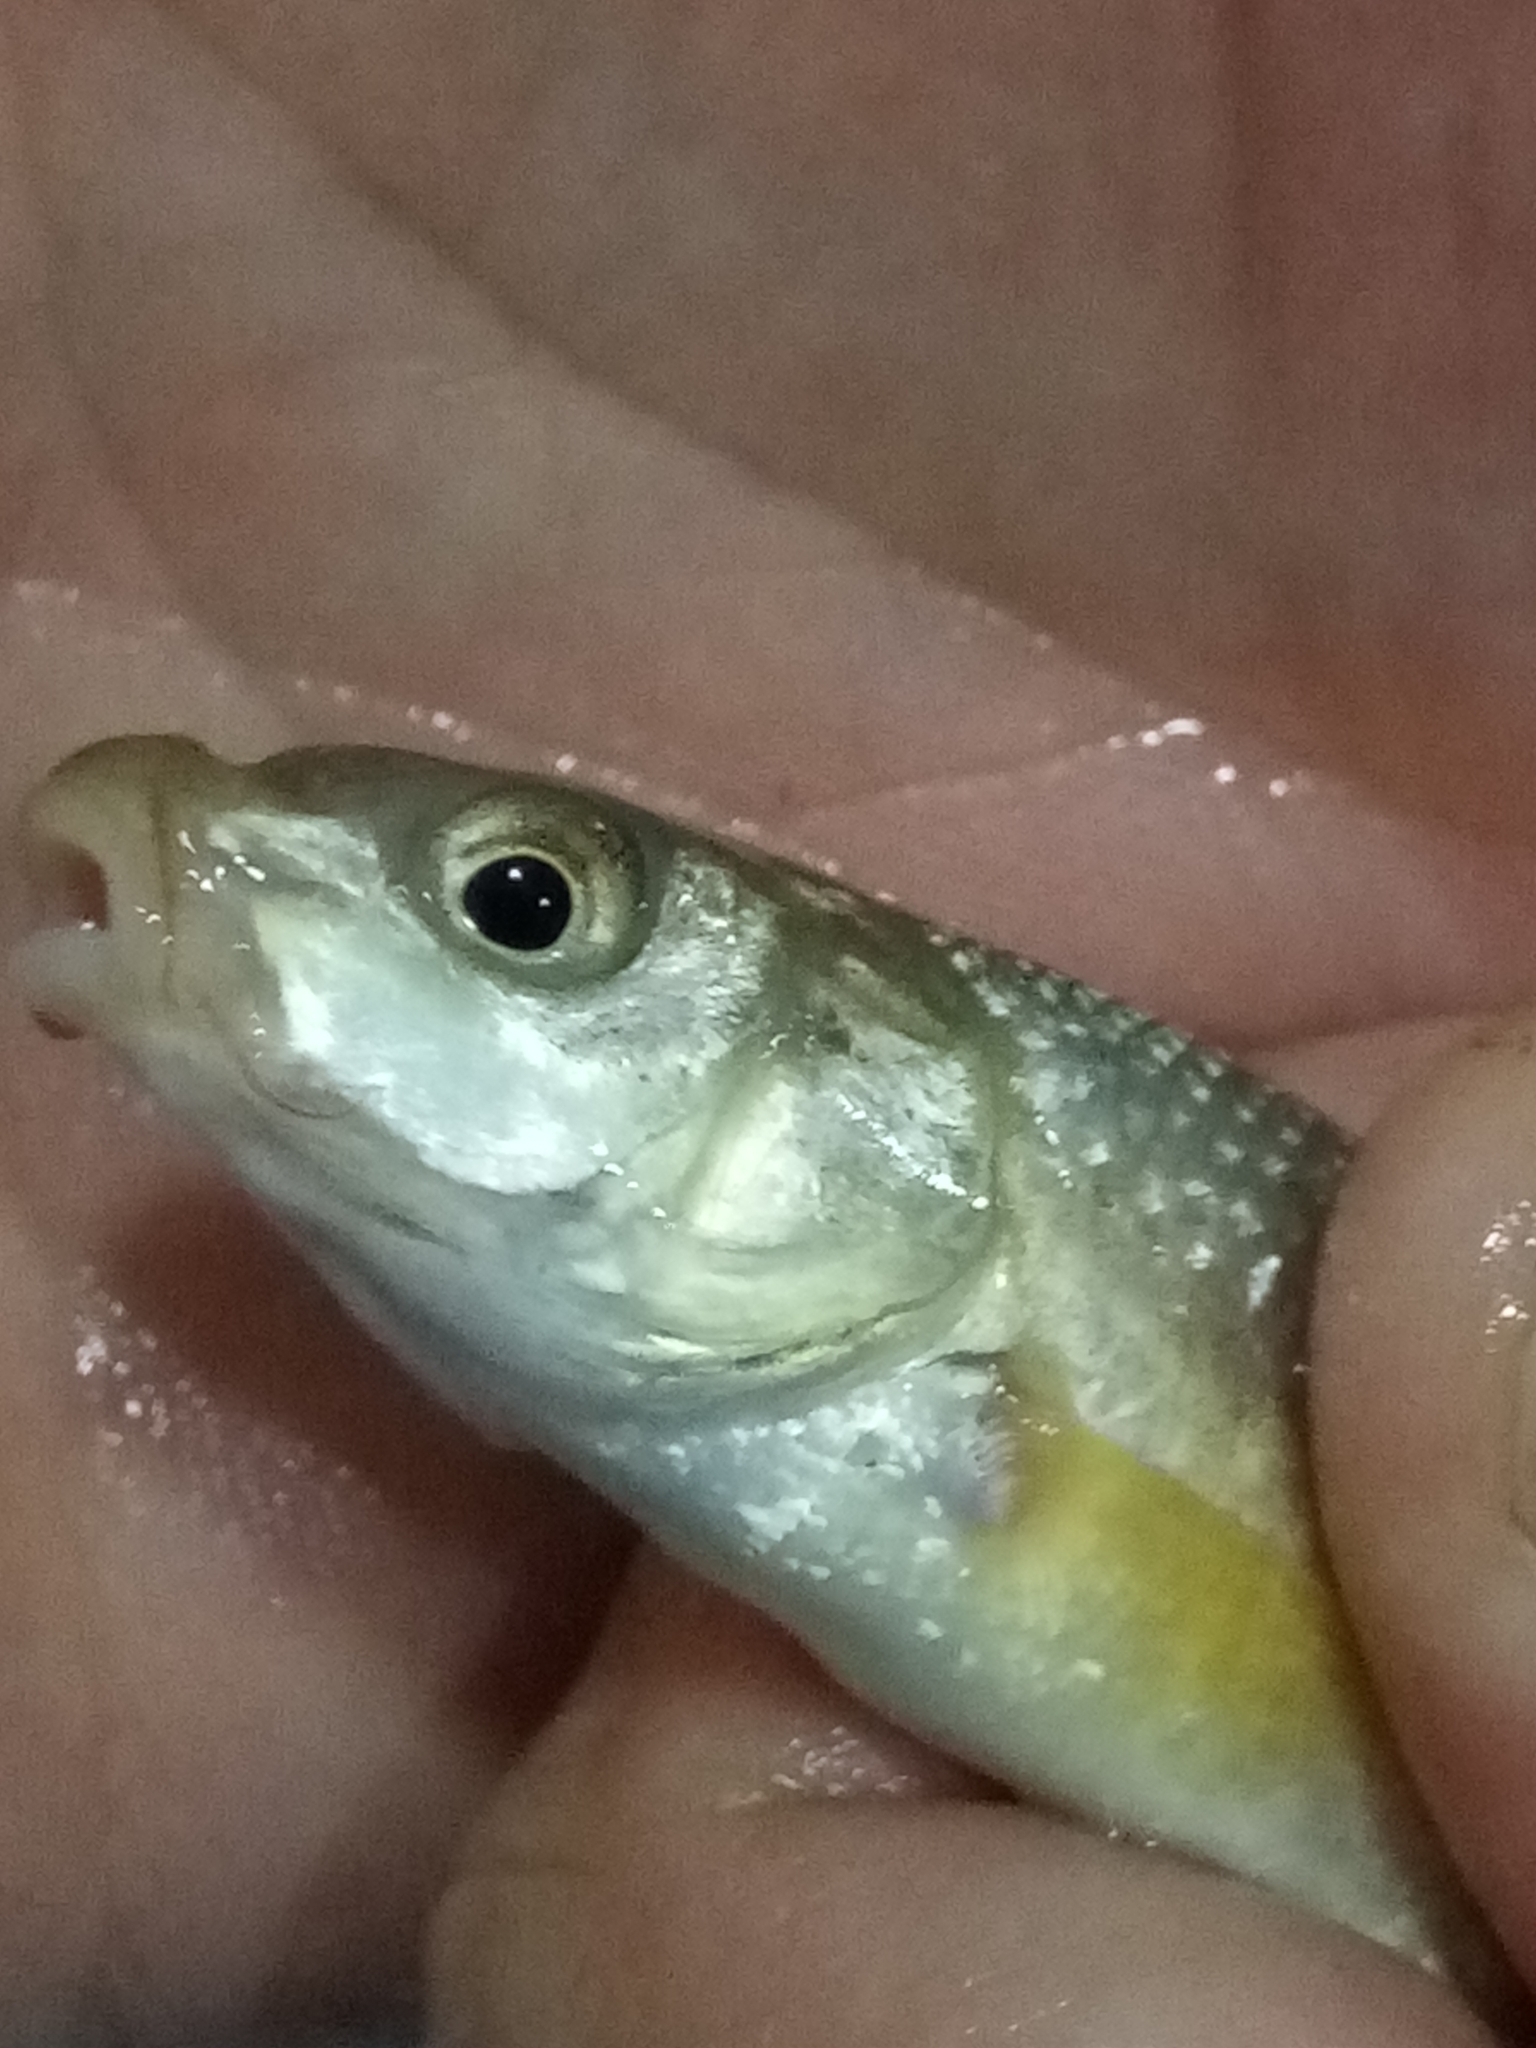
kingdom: Animalia
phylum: Chordata
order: Cypriniformes
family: Cyprinidae
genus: Enteromius
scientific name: Enteromius deserti
